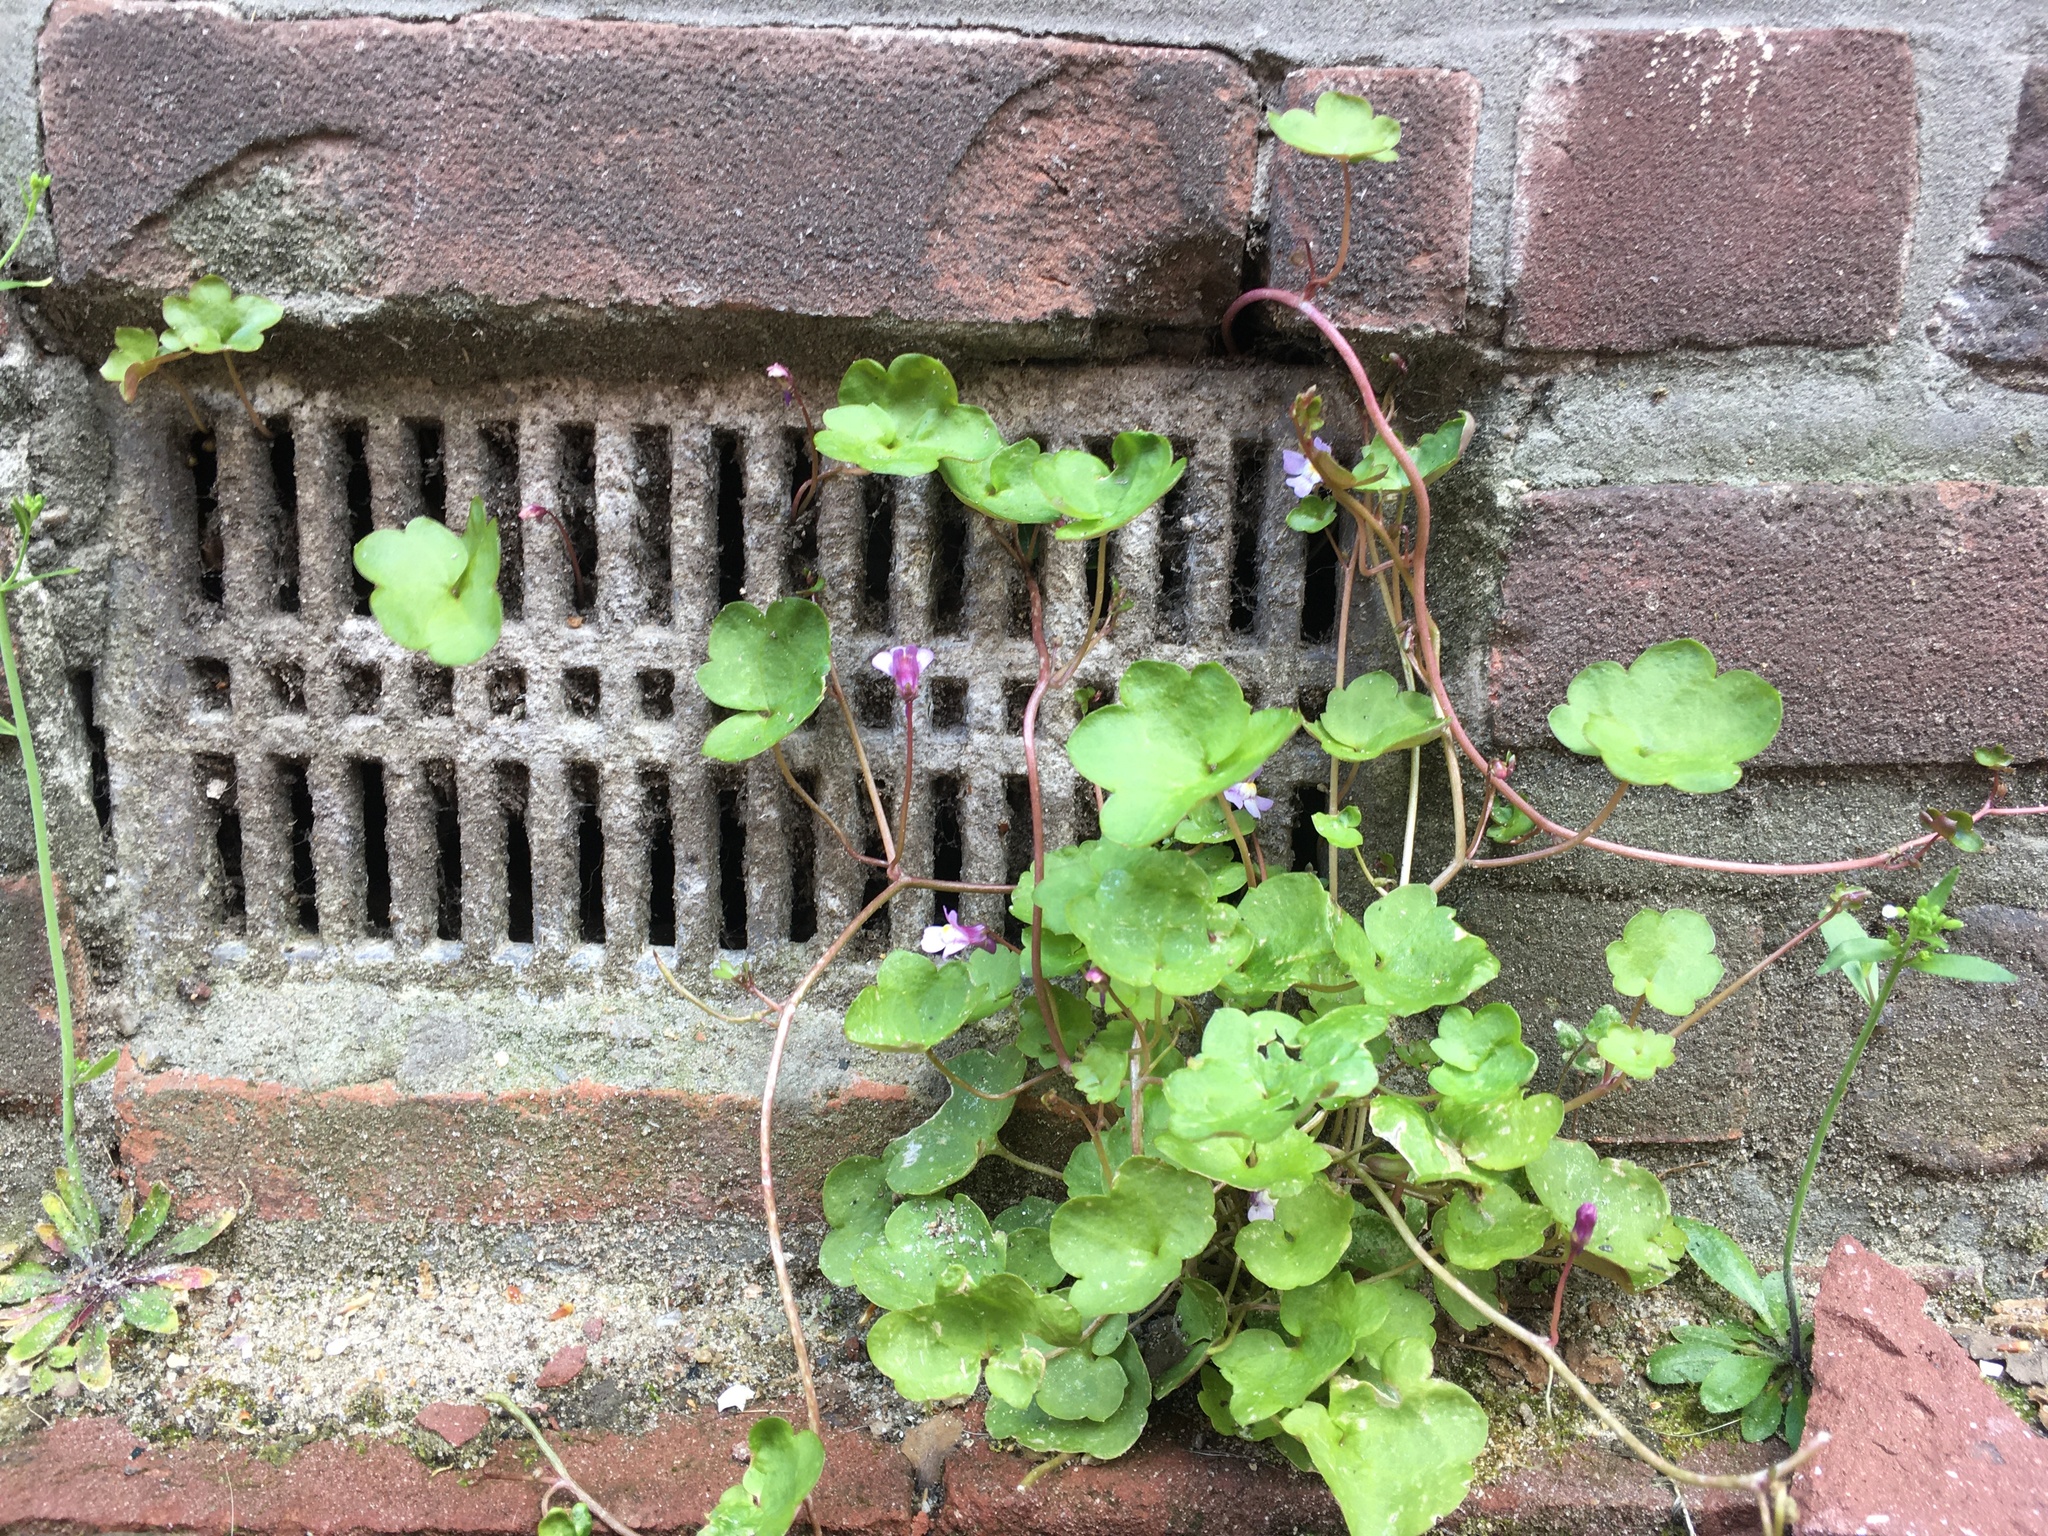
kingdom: Plantae
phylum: Tracheophyta
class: Magnoliopsida
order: Lamiales
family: Plantaginaceae
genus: Cymbalaria
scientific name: Cymbalaria muralis
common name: Ivy-leaved toadflax
